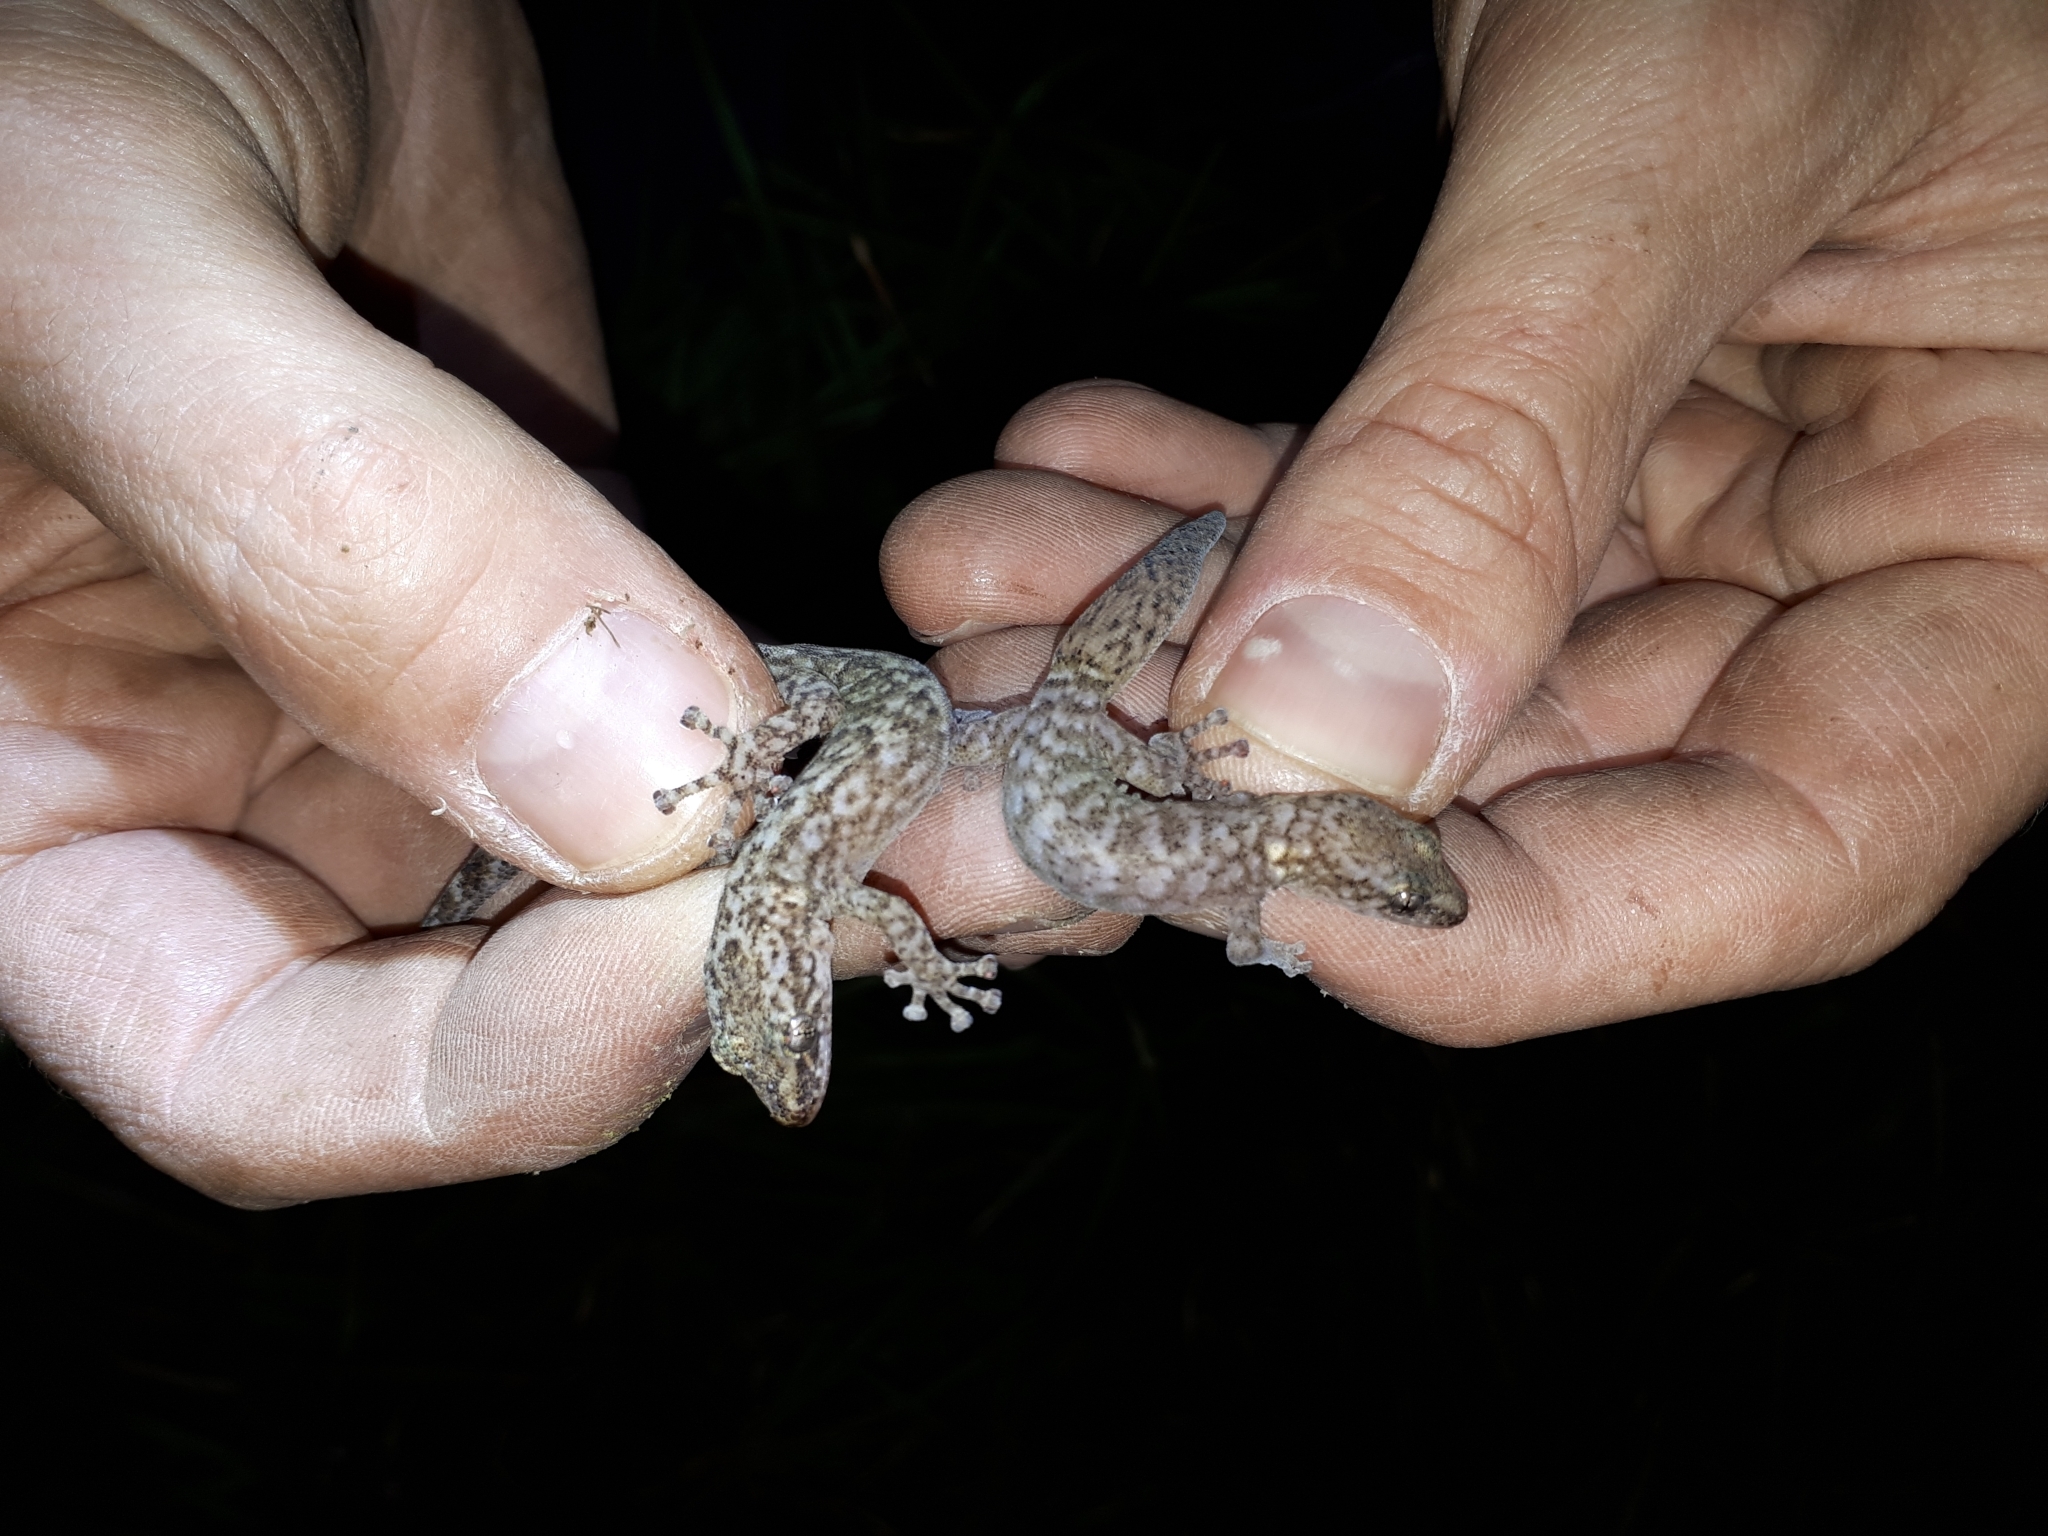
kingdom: Animalia
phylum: Chordata
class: Squamata
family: Gekkonidae
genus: Afrogecko
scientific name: Afrogecko porphyreus
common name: Marbled leaf-toed gecko
